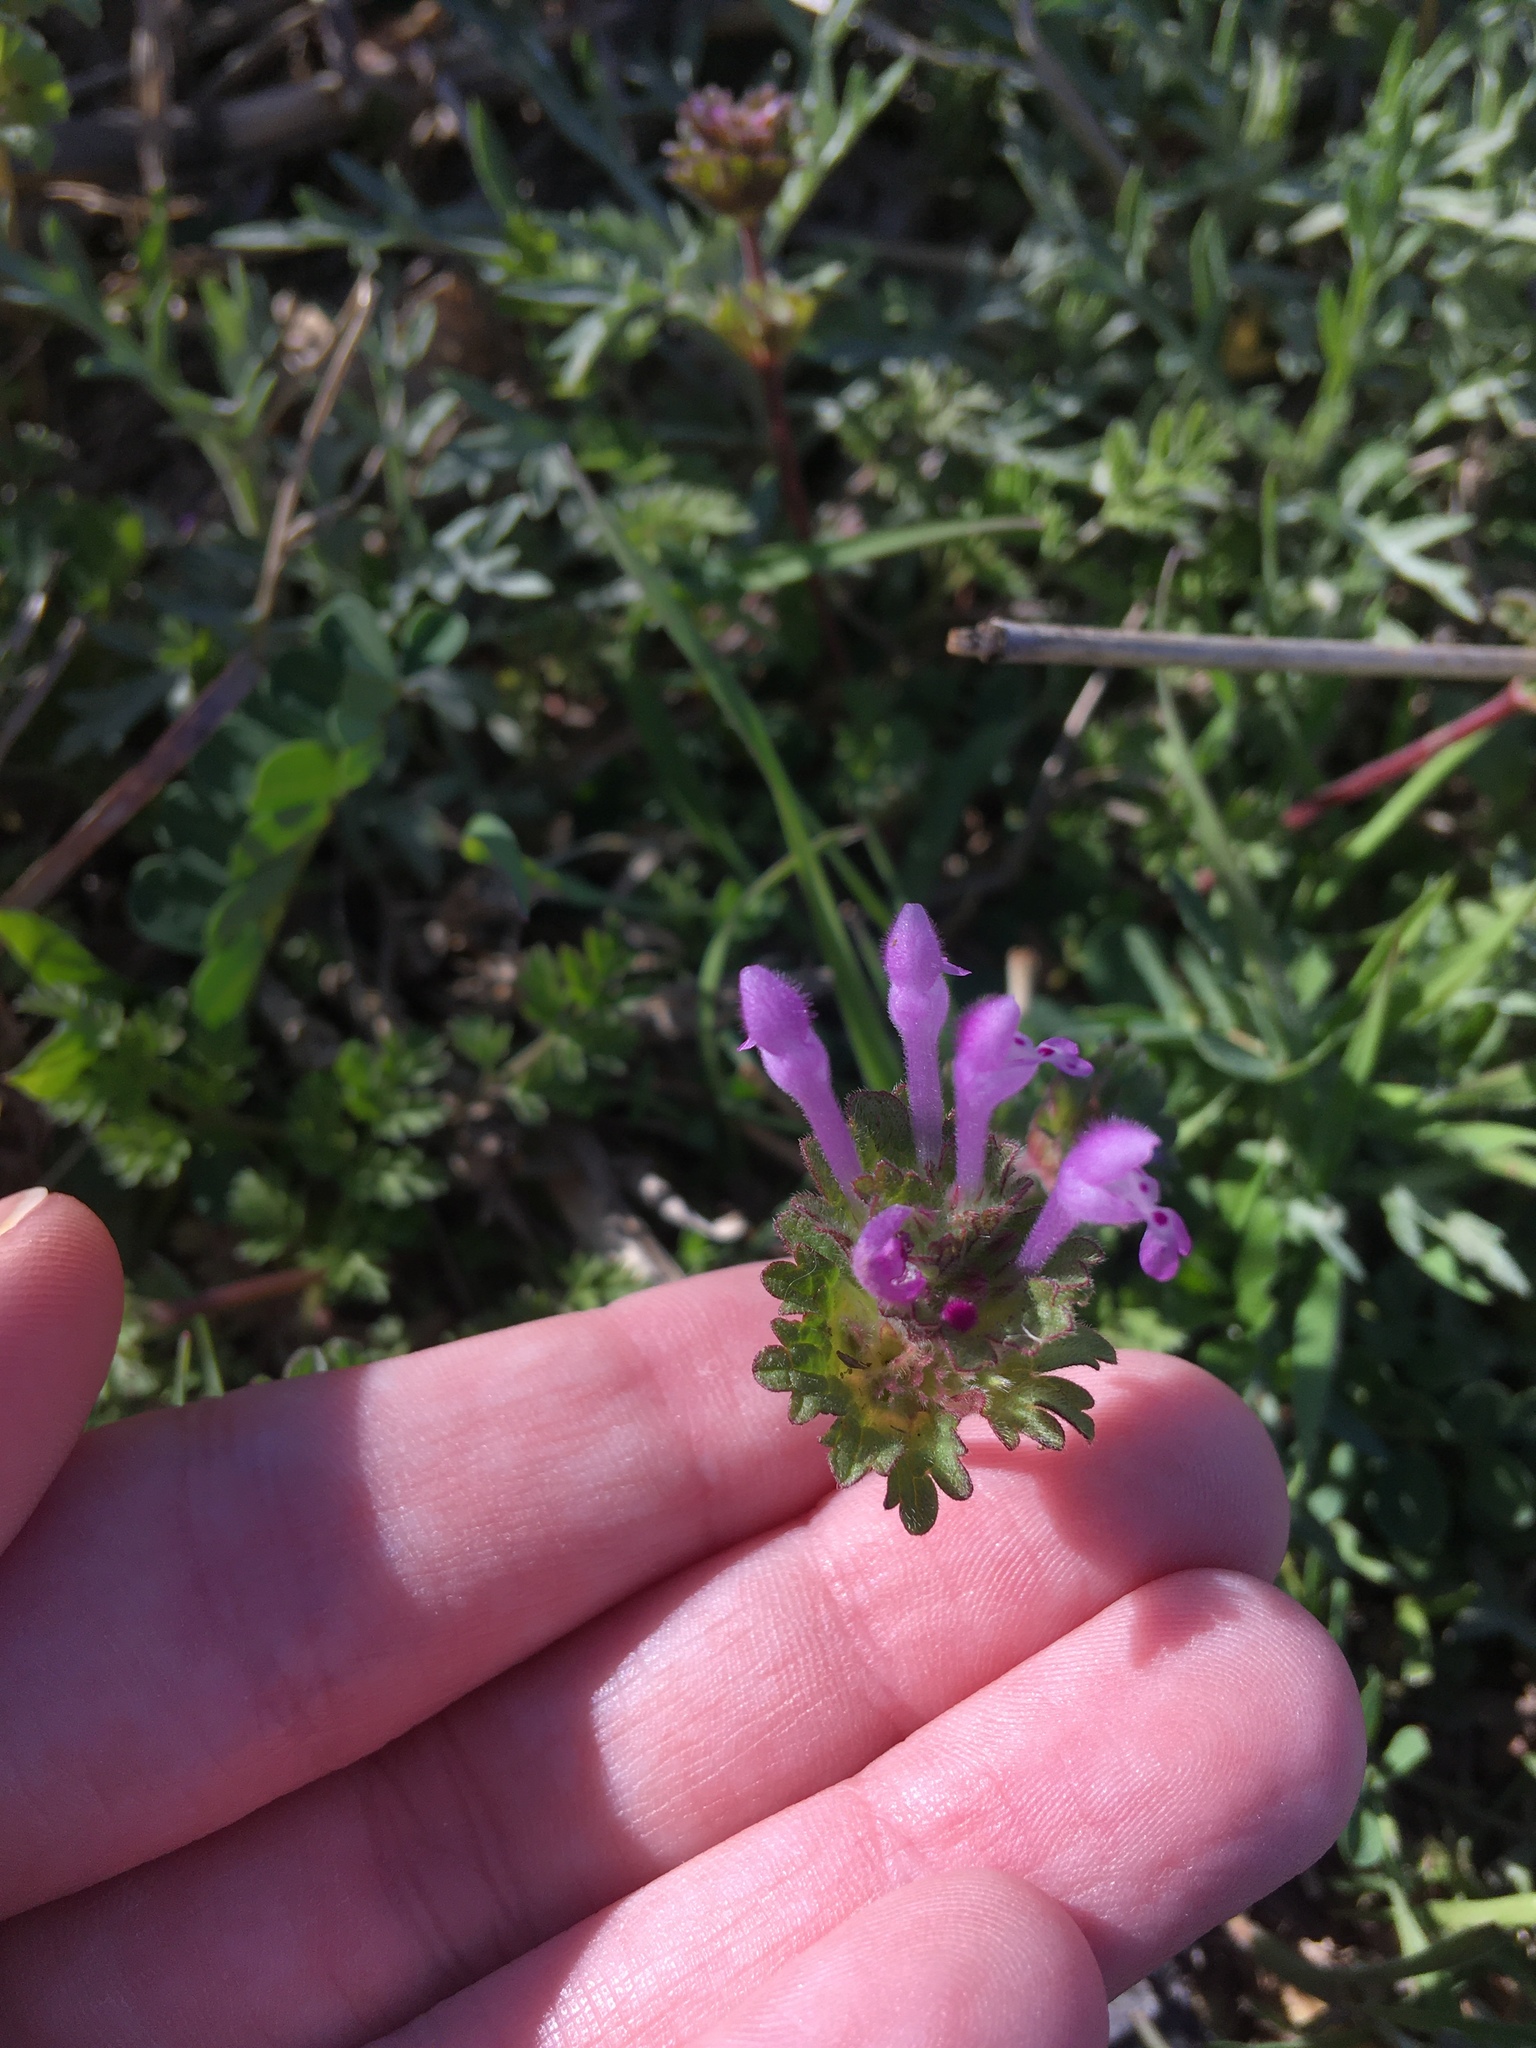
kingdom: Plantae
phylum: Tracheophyta
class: Magnoliopsida
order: Lamiales
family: Lamiaceae
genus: Lamium
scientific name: Lamium amplexicaule
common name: Henbit dead-nettle
